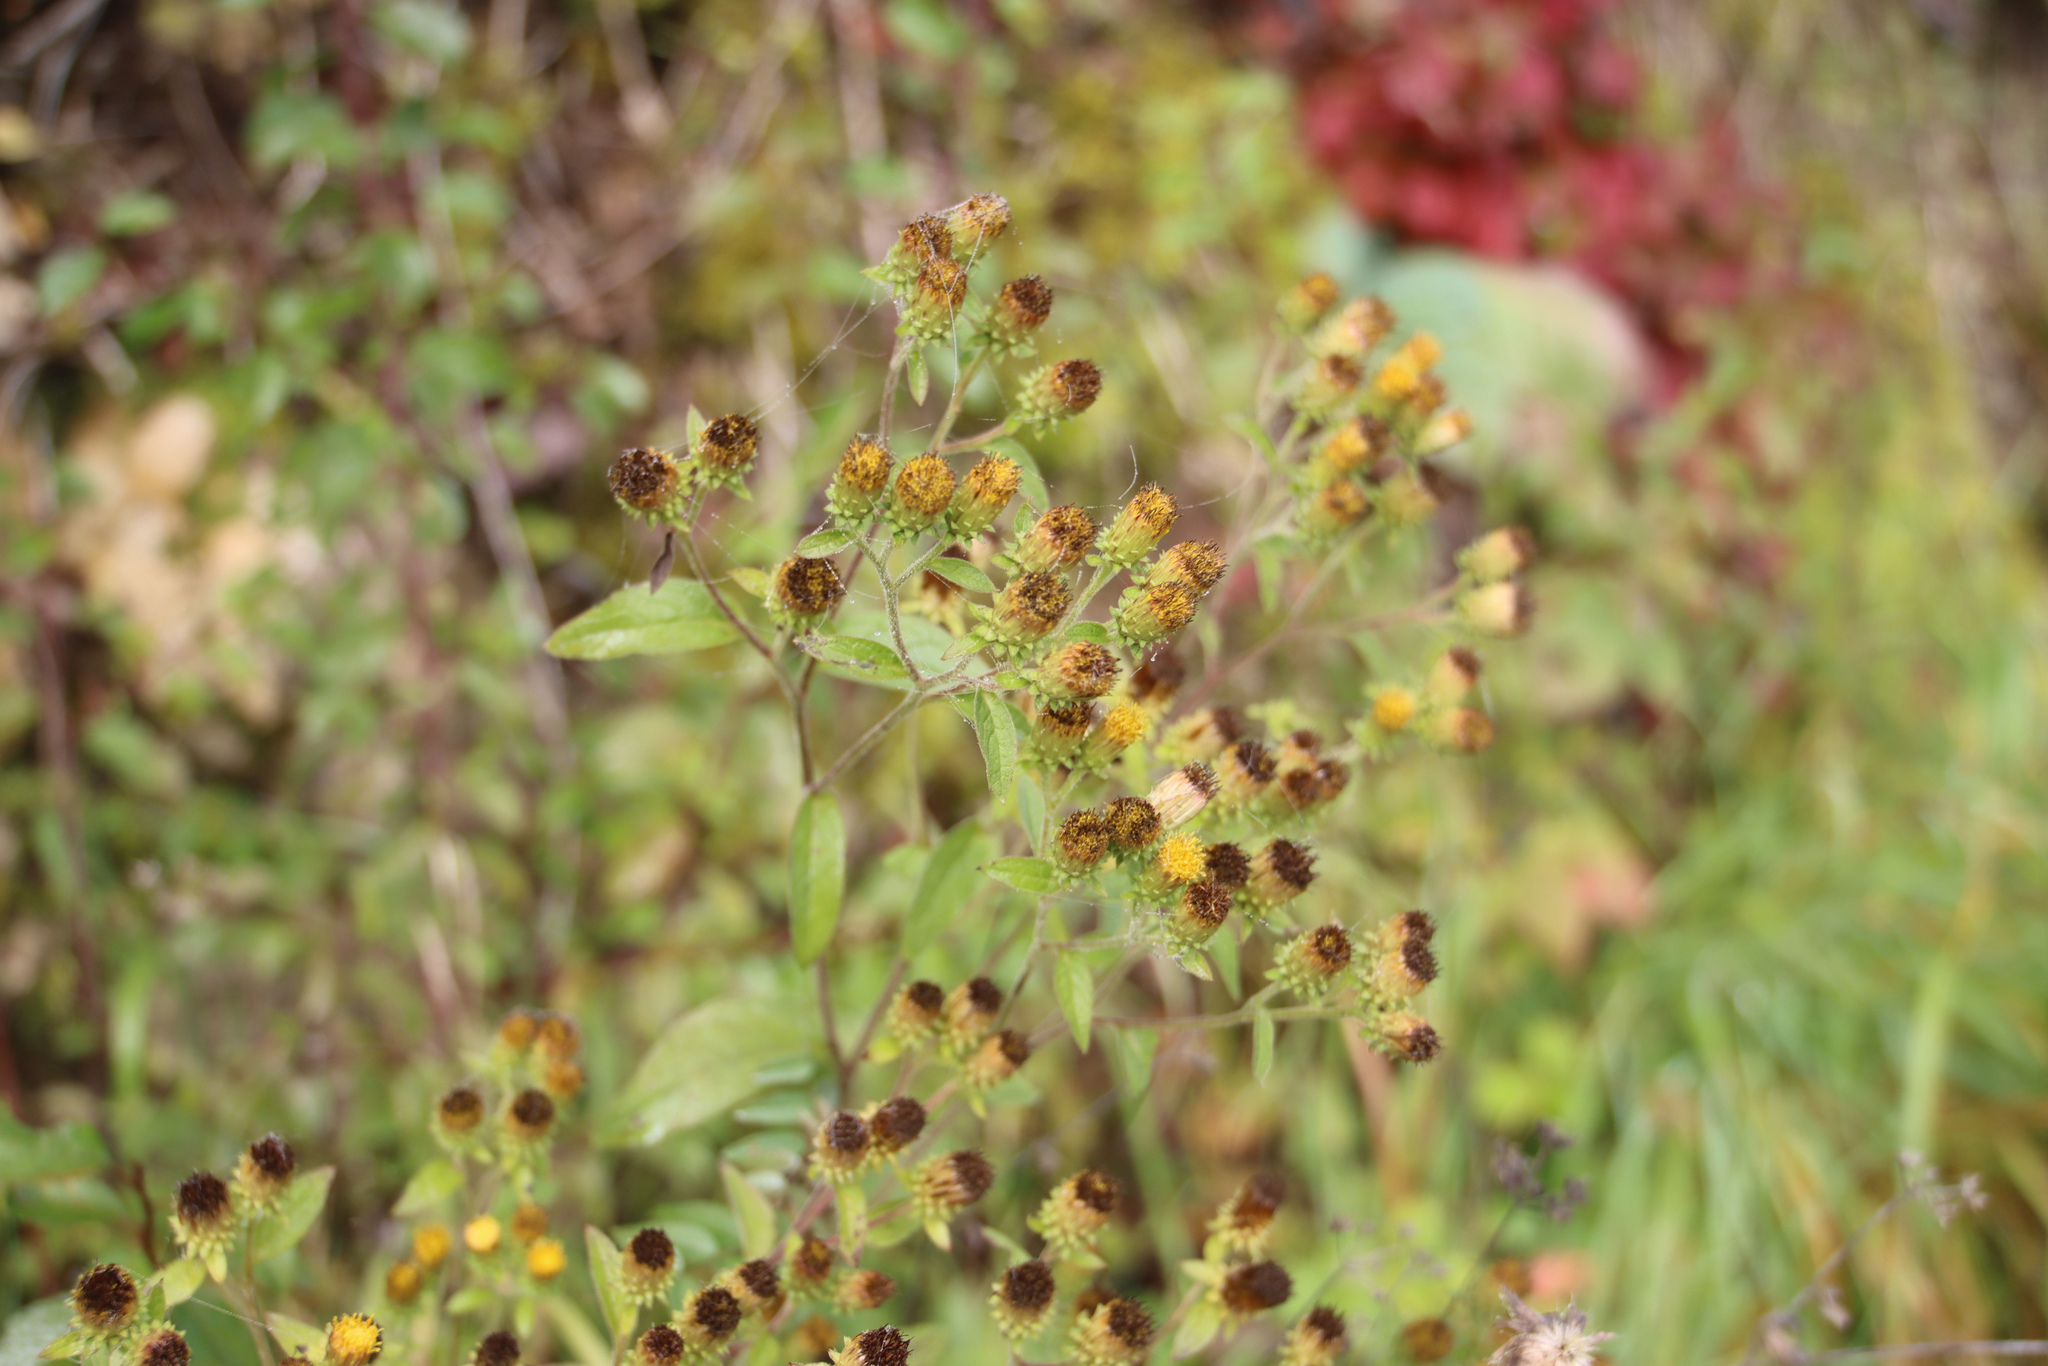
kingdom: Plantae
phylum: Tracheophyta
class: Magnoliopsida
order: Asterales
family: Asteraceae
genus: Pentanema
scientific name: Pentanema squarrosum
